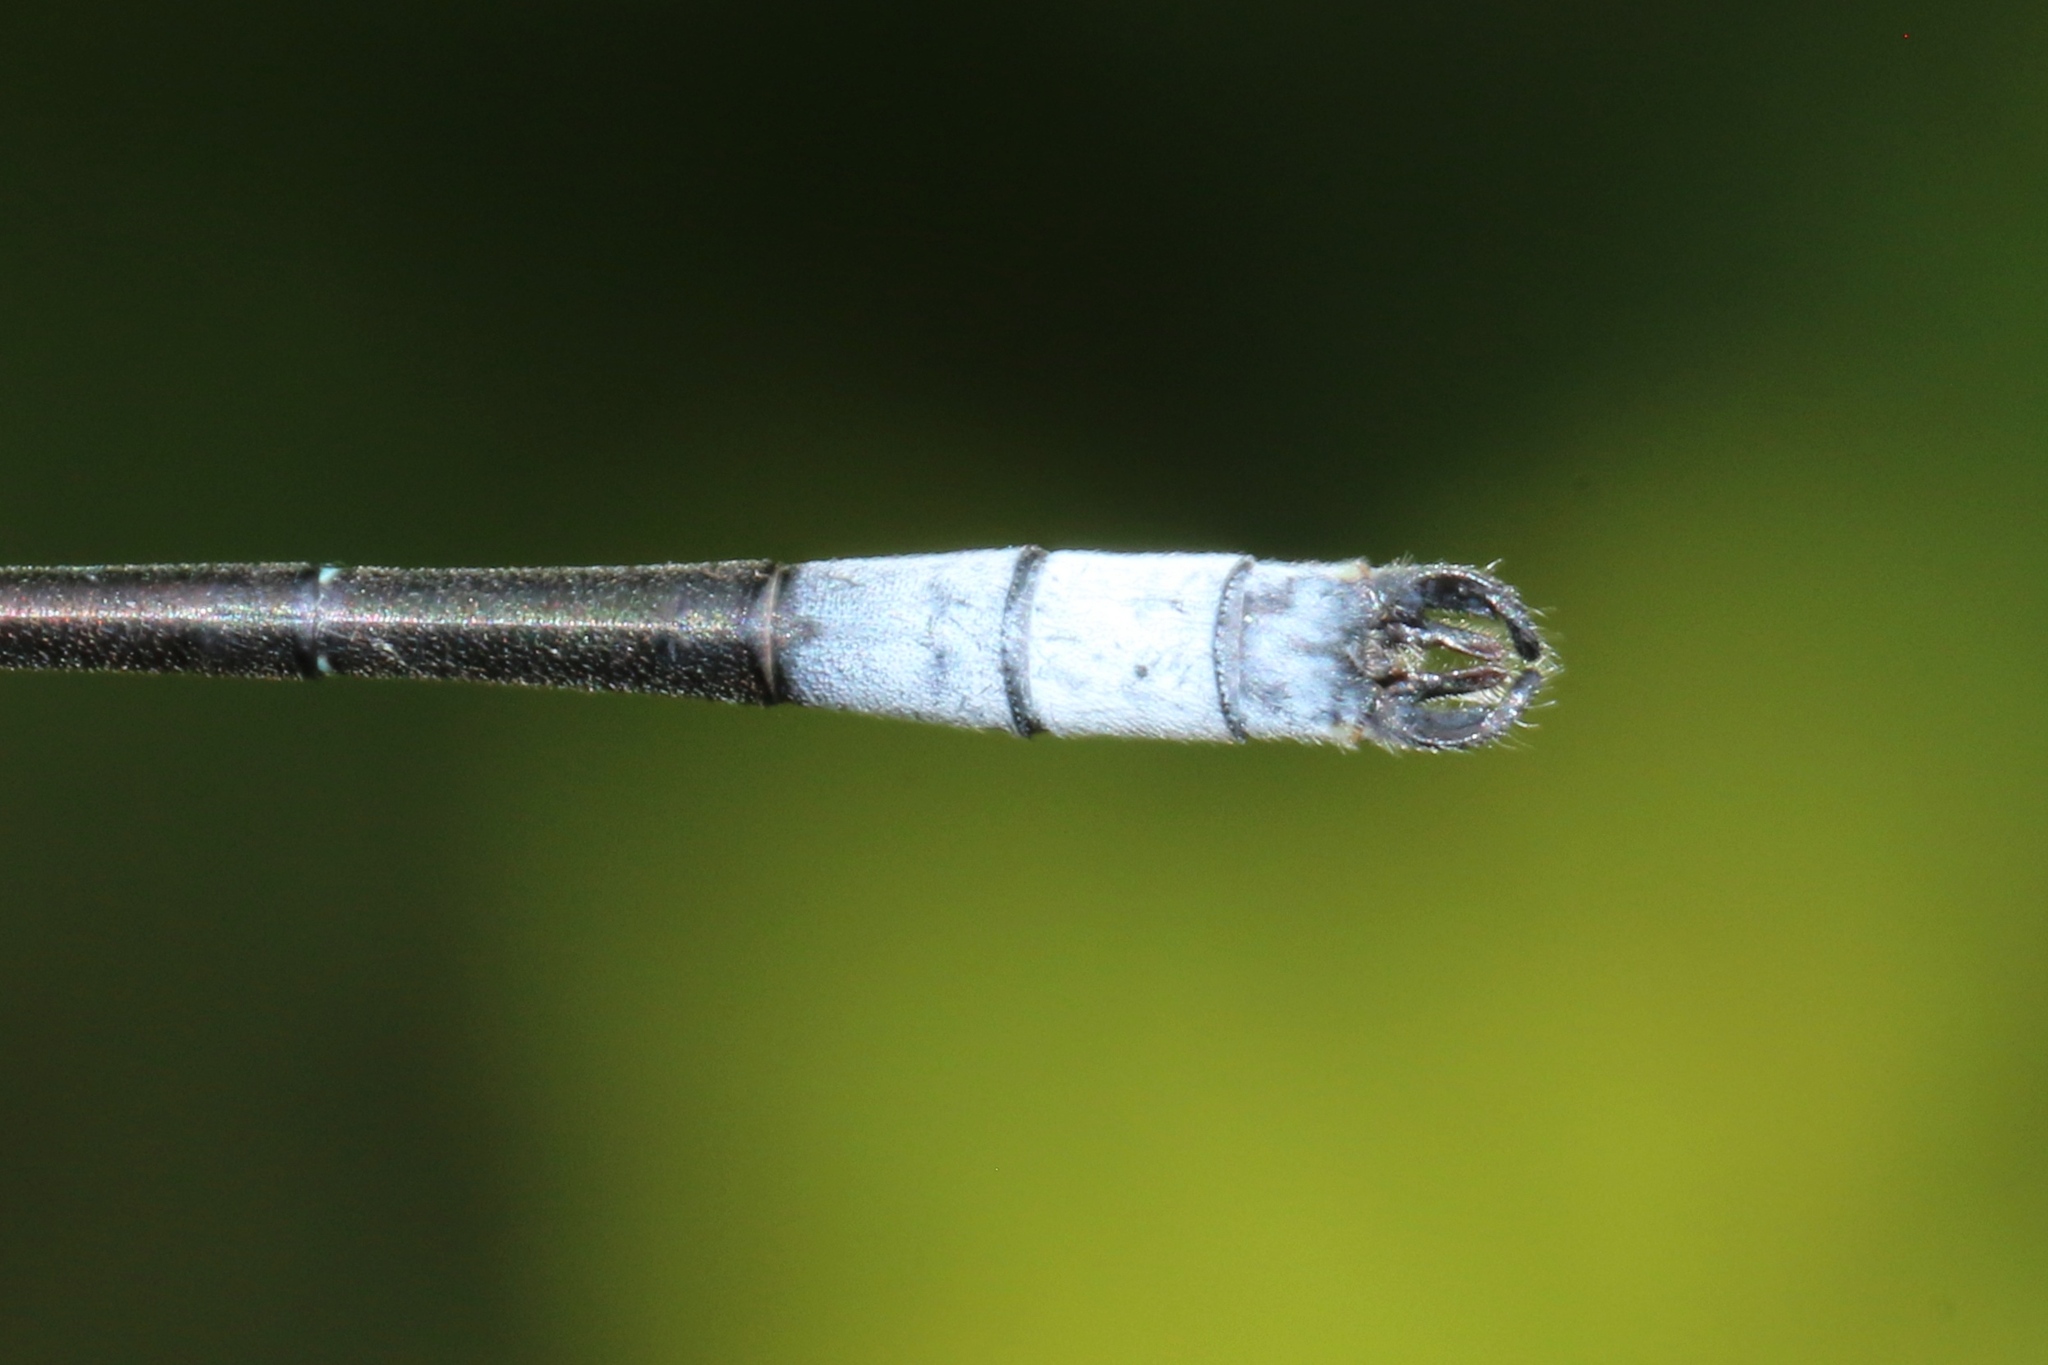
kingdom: Animalia
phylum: Arthropoda
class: Insecta
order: Odonata
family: Lestidae
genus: Lestes
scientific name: Lestes forcipatus
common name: Sweetflag spreadwing
